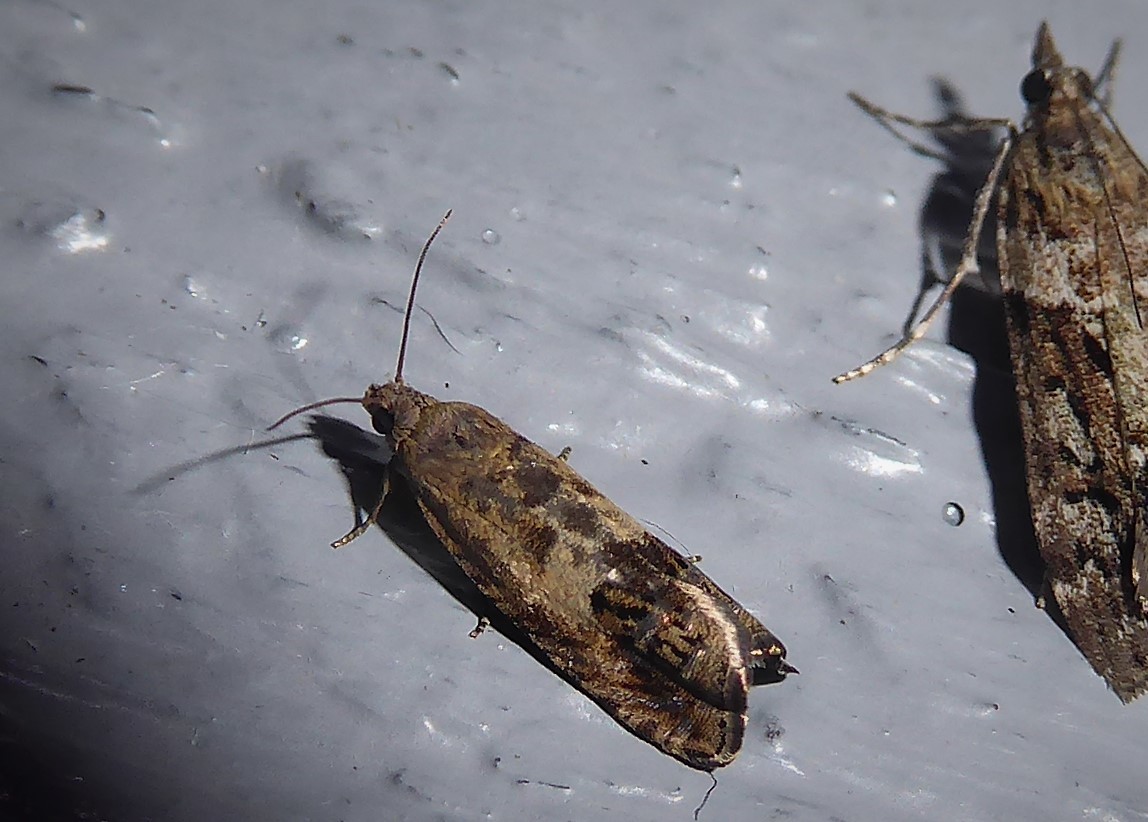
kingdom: Animalia
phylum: Arthropoda
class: Insecta
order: Lepidoptera
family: Tortricidae
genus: Cydia
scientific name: Cydia succedana
